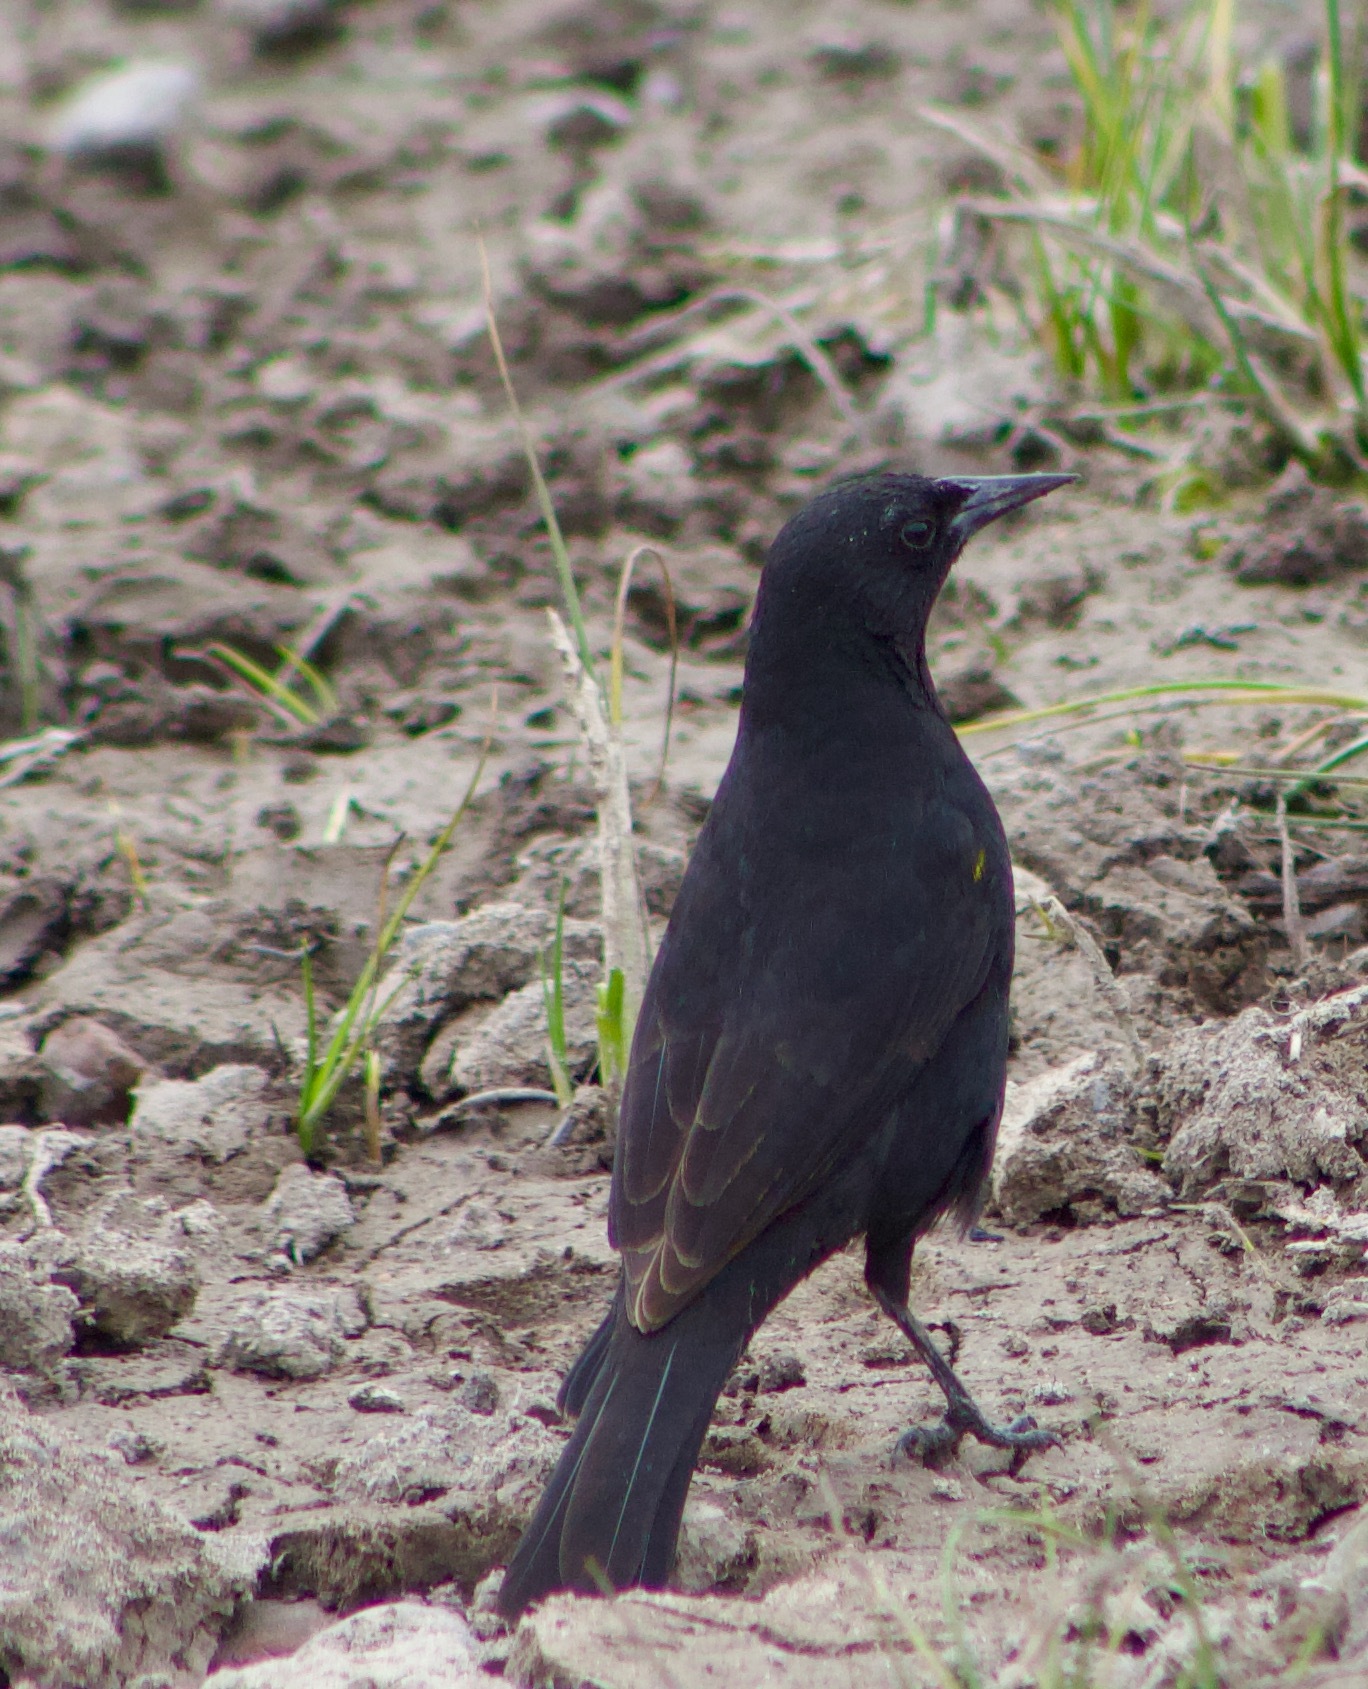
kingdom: Animalia
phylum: Chordata
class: Aves
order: Passeriformes
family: Icteridae
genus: Agelasticus
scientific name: Agelasticus thilius
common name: Yellow-winged blackbird
